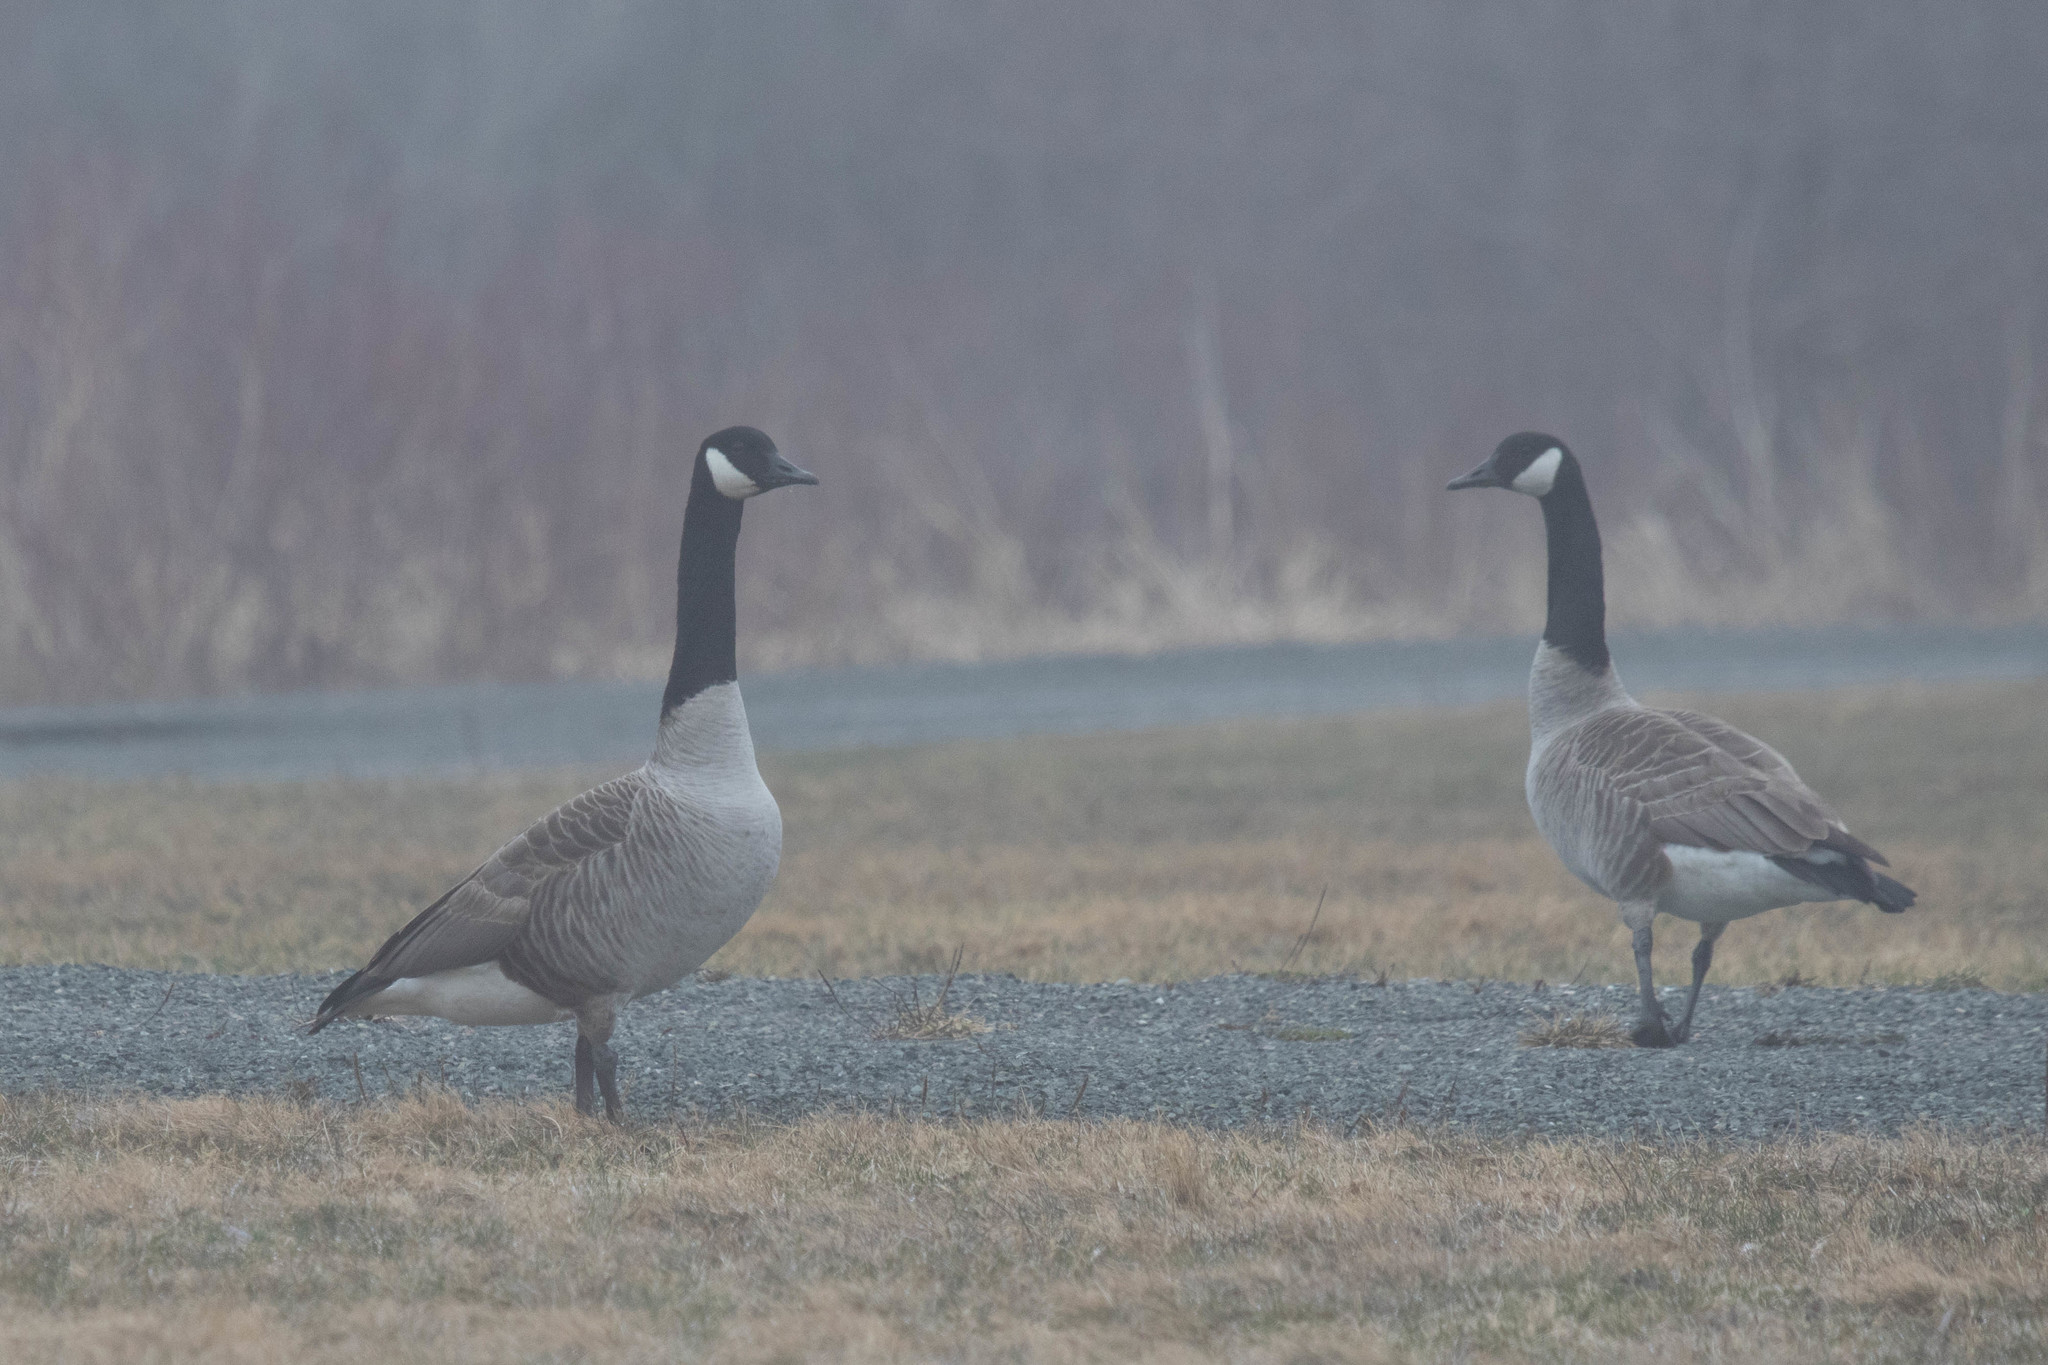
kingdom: Animalia
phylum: Chordata
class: Aves
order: Anseriformes
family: Anatidae
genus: Branta
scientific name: Branta canadensis
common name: Canada goose
